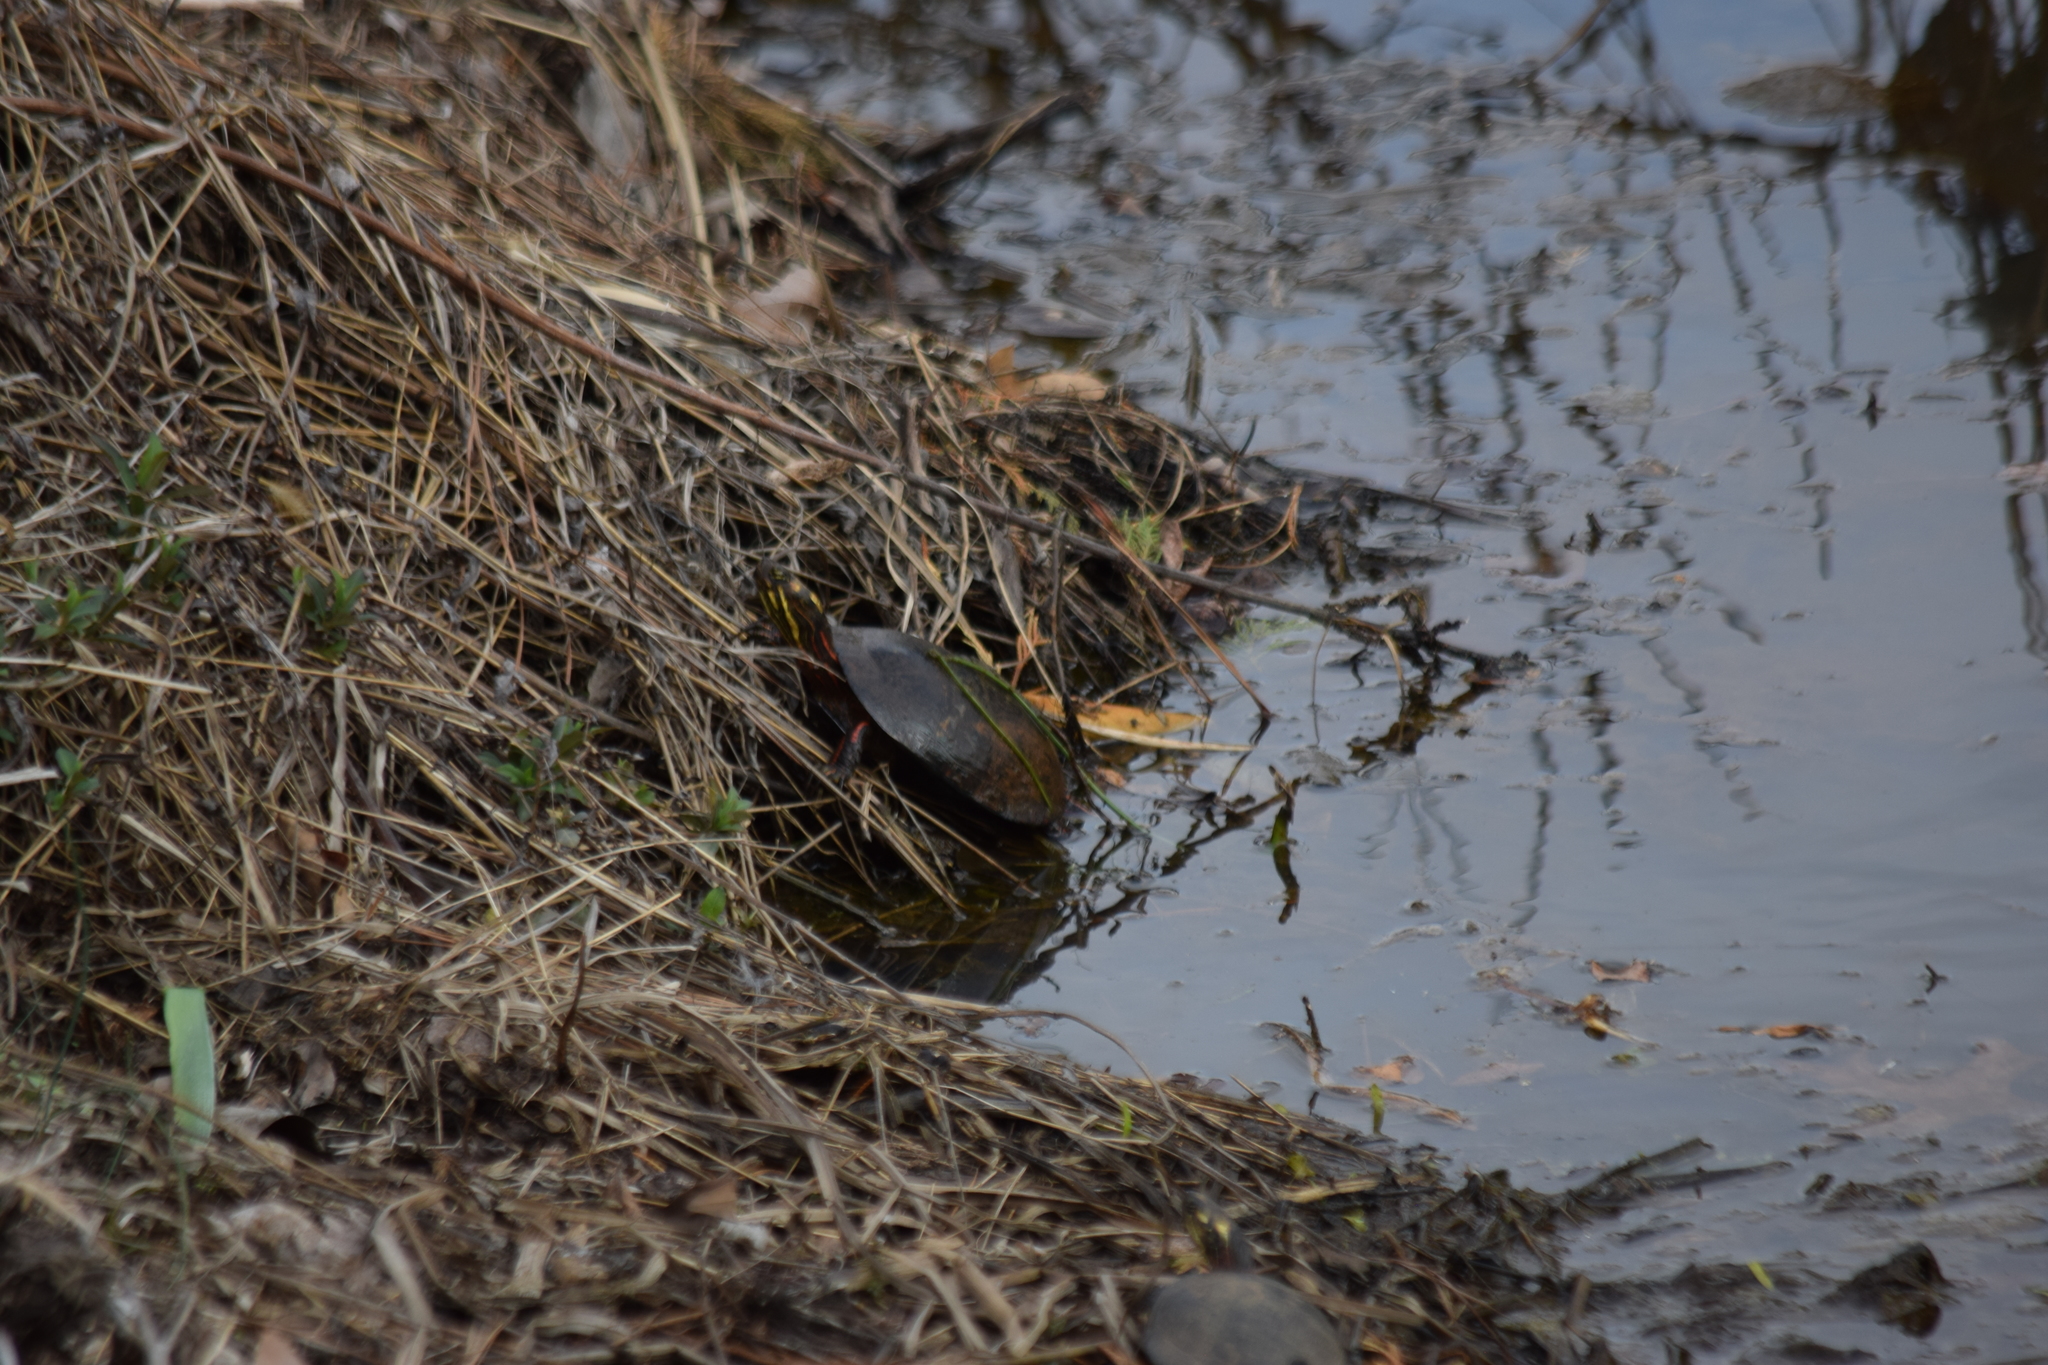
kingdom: Animalia
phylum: Chordata
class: Testudines
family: Emydidae
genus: Chrysemys
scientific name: Chrysemys picta
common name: Painted turtle
